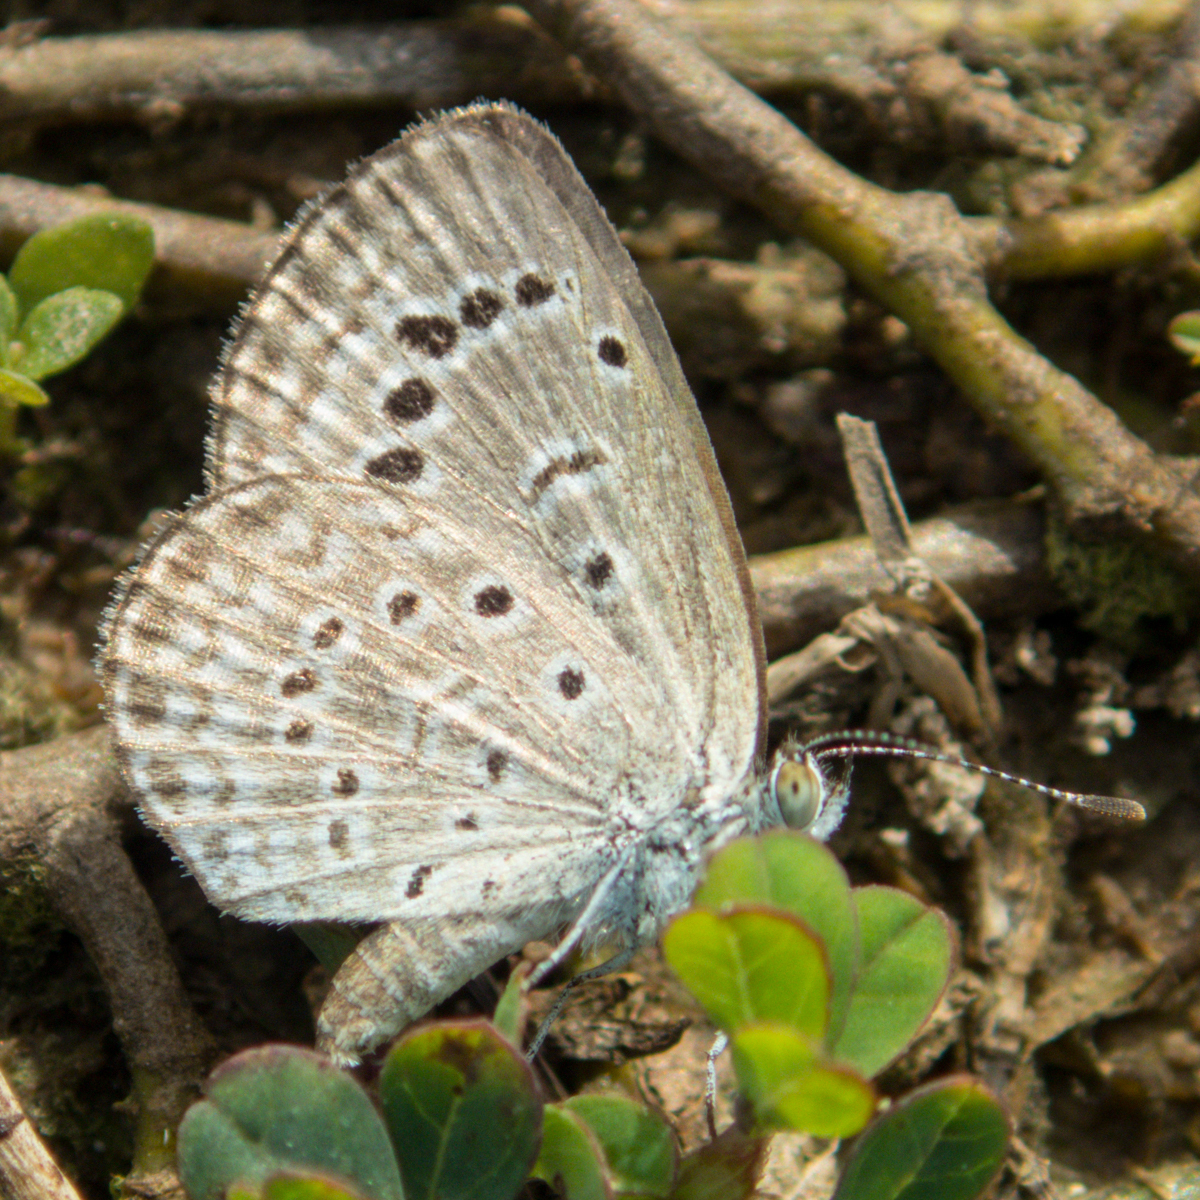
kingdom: Animalia
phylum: Arthropoda
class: Insecta
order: Lepidoptera
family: Lycaenidae
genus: Zizeeria
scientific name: Zizeeria karsandra
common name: Dark grass blue
